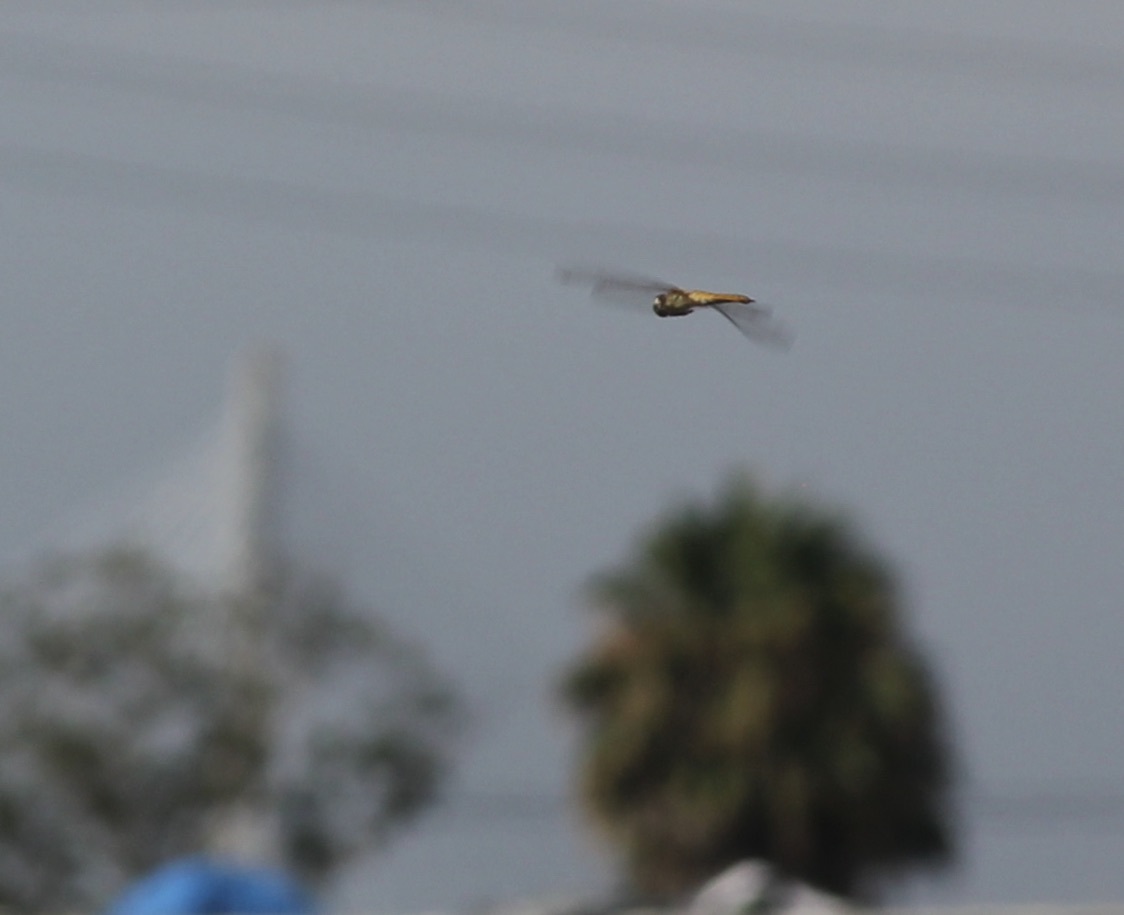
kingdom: Animalia
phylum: Arthropoda
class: Insecta
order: Odonata
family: Libellulidae
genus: Pantala
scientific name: Pantala flavescens
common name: Wandering glider
